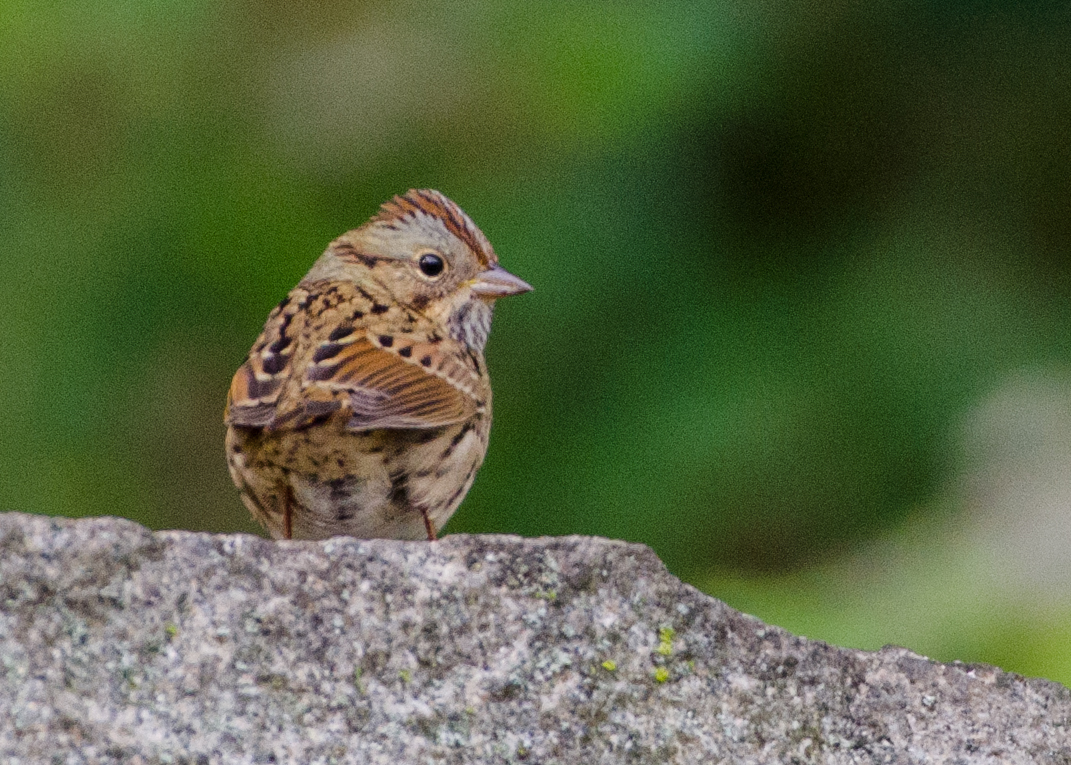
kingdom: Animalia
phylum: Chordata
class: Aves
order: Passeriformes
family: Passerellidae
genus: Melospiza
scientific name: Melospiza lincolnii
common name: Lincoln's sparrow
